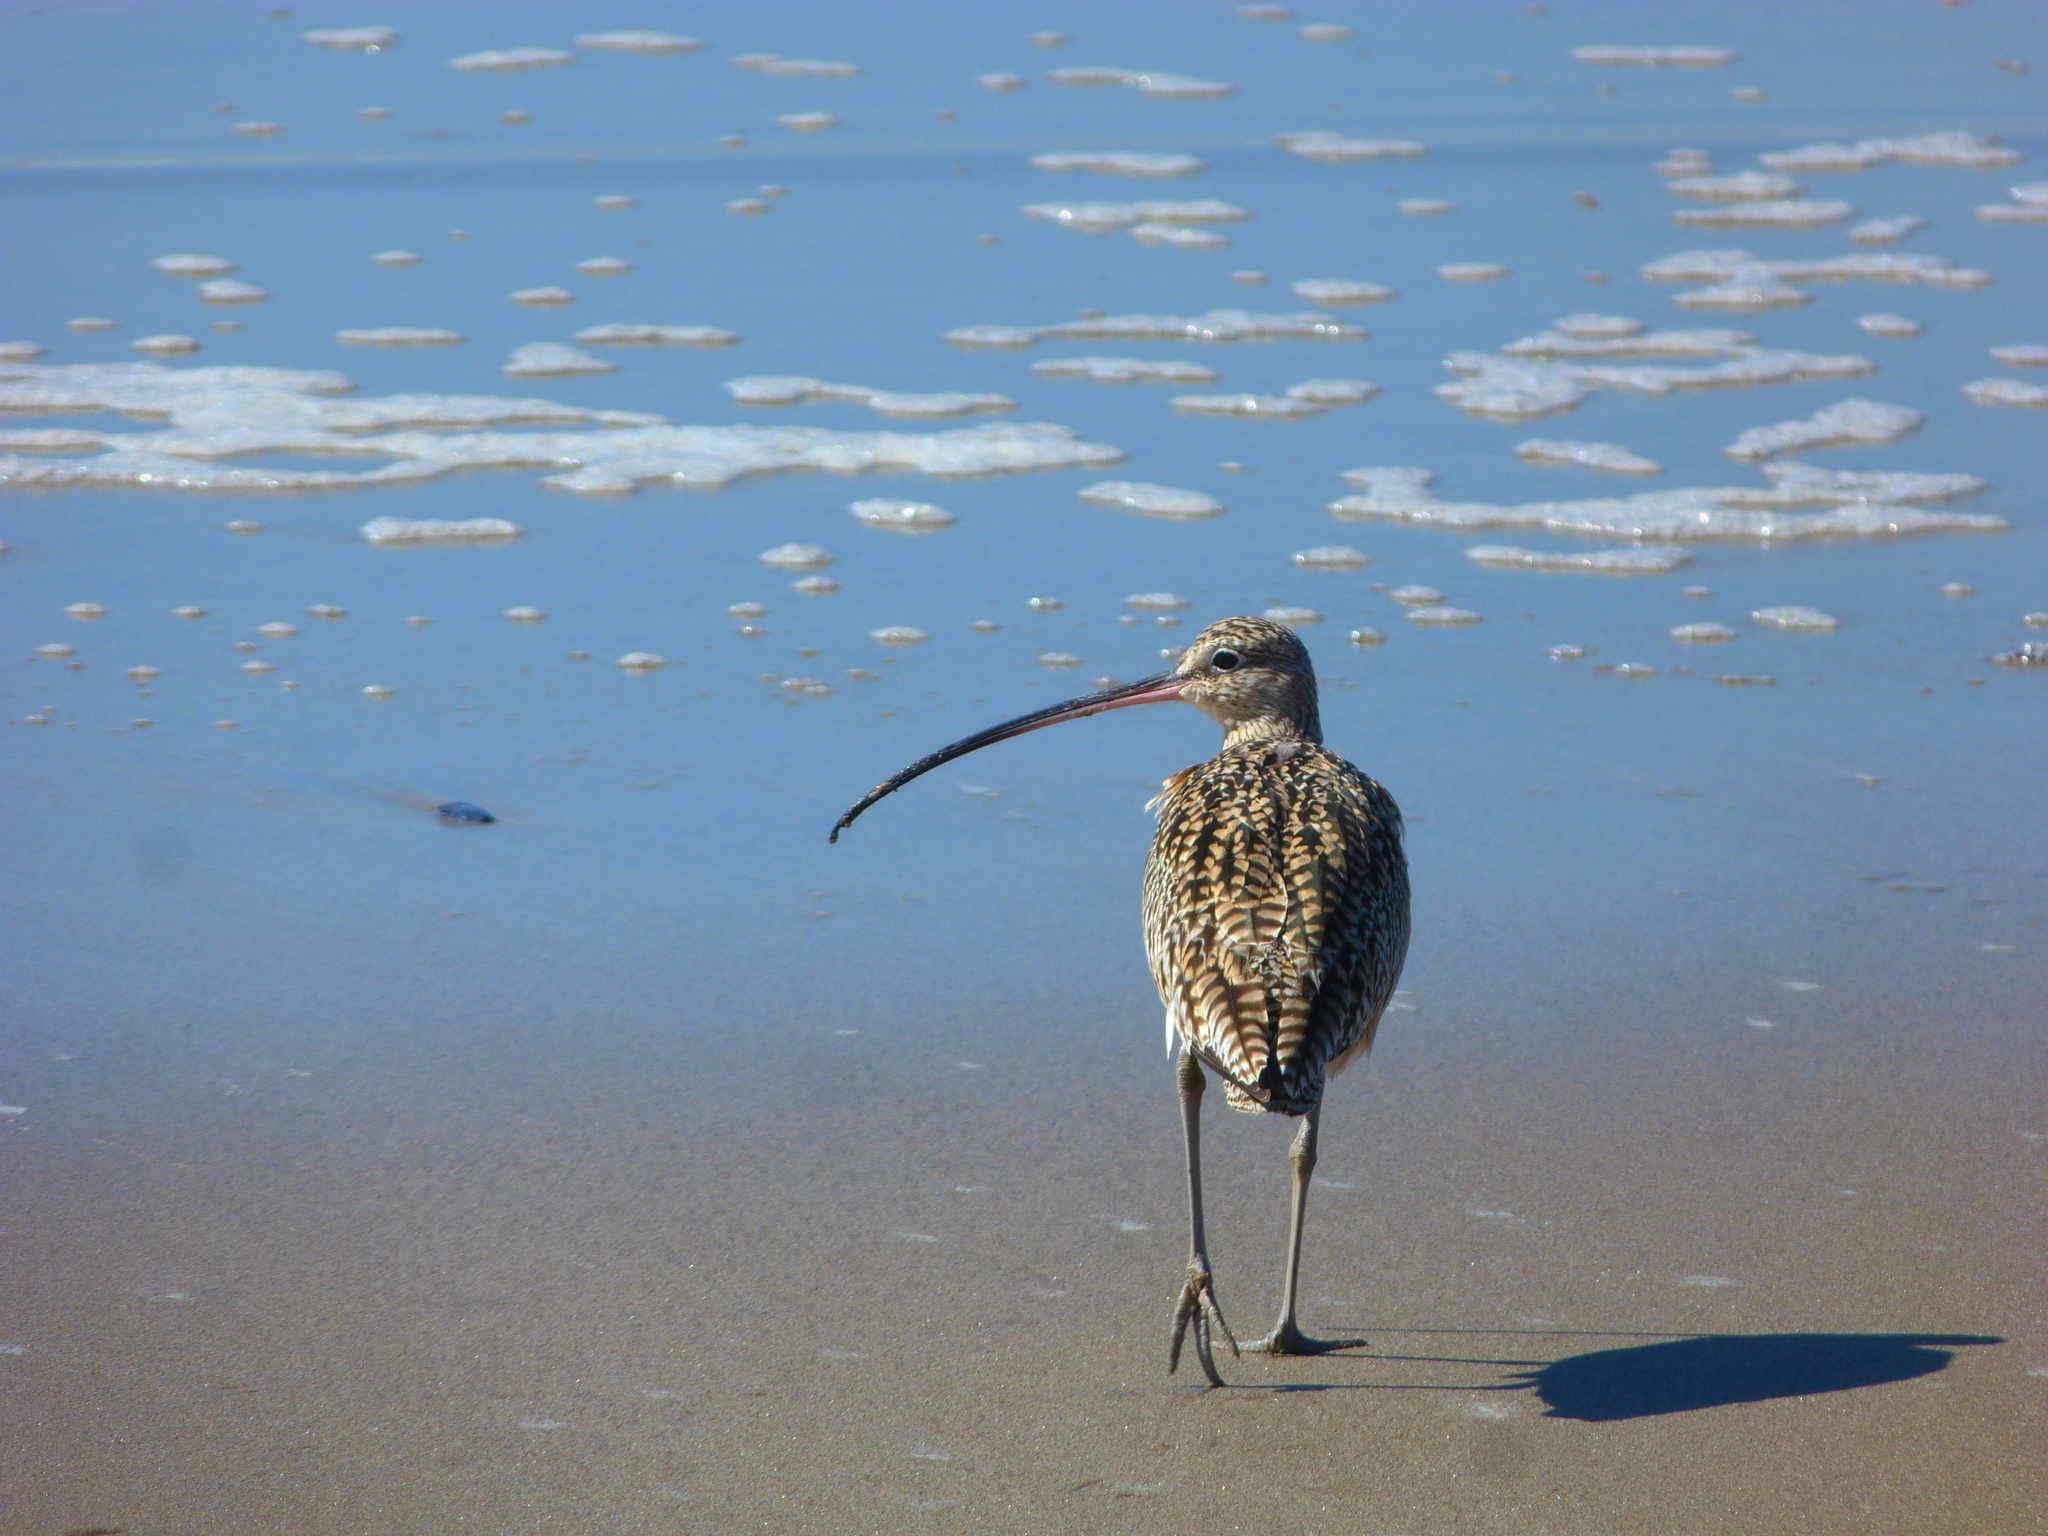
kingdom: Animalia
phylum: Chordata
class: Aves
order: Charadriiformes
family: Scolopacidae
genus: Numenius
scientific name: Numenius americanus
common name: Long-billed curlew
